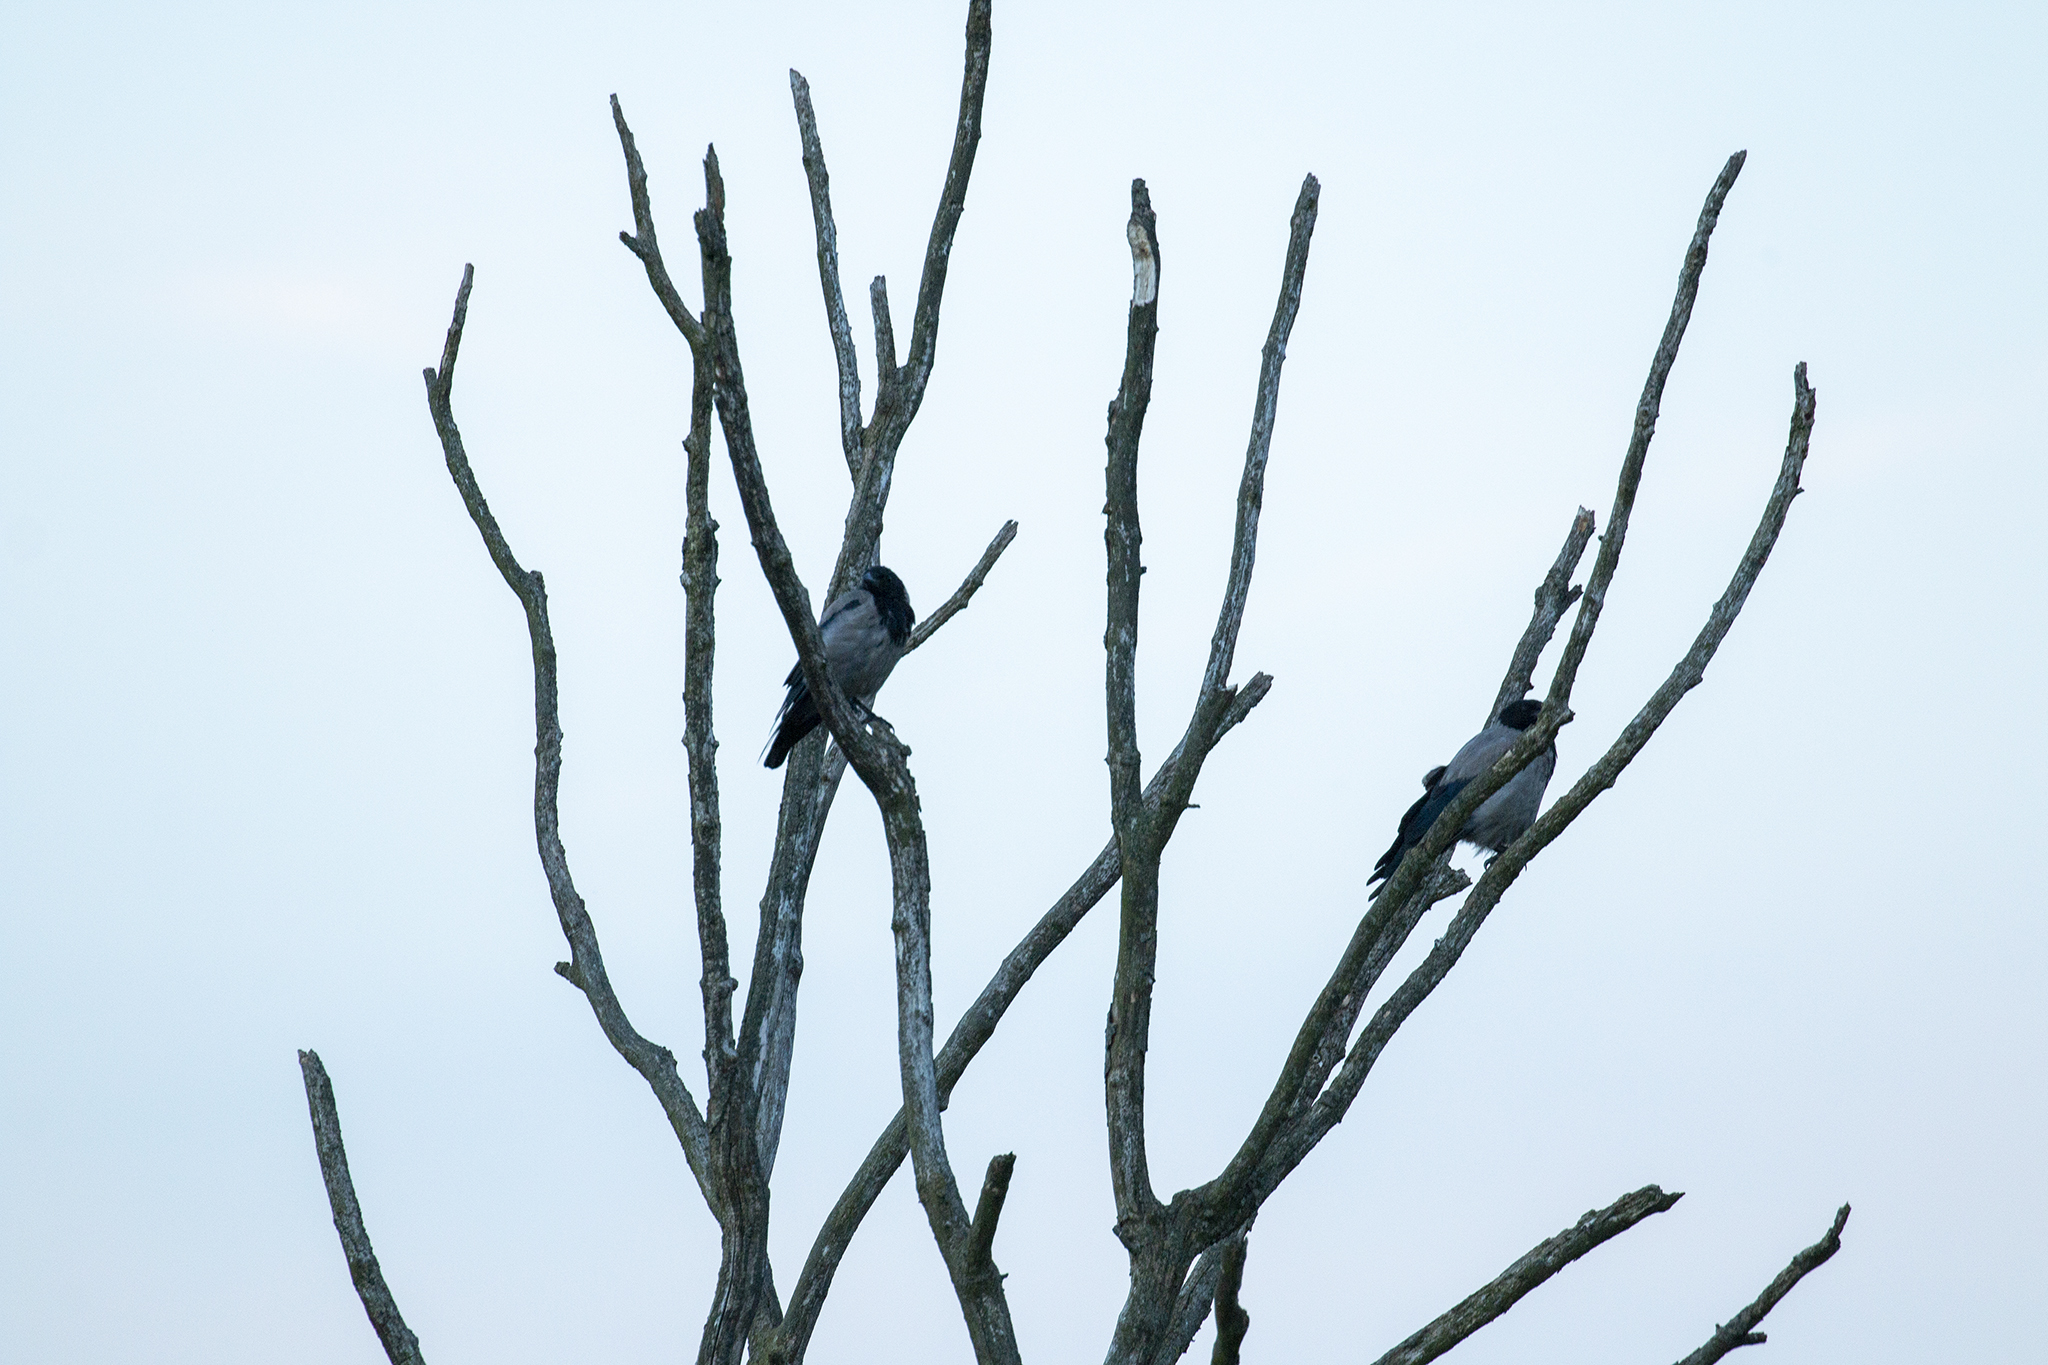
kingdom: Animalia
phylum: Chordata
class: Aves
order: Passeriformes
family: Corvidae
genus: Corvus
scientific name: Corvus cornix
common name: Hooded crow
